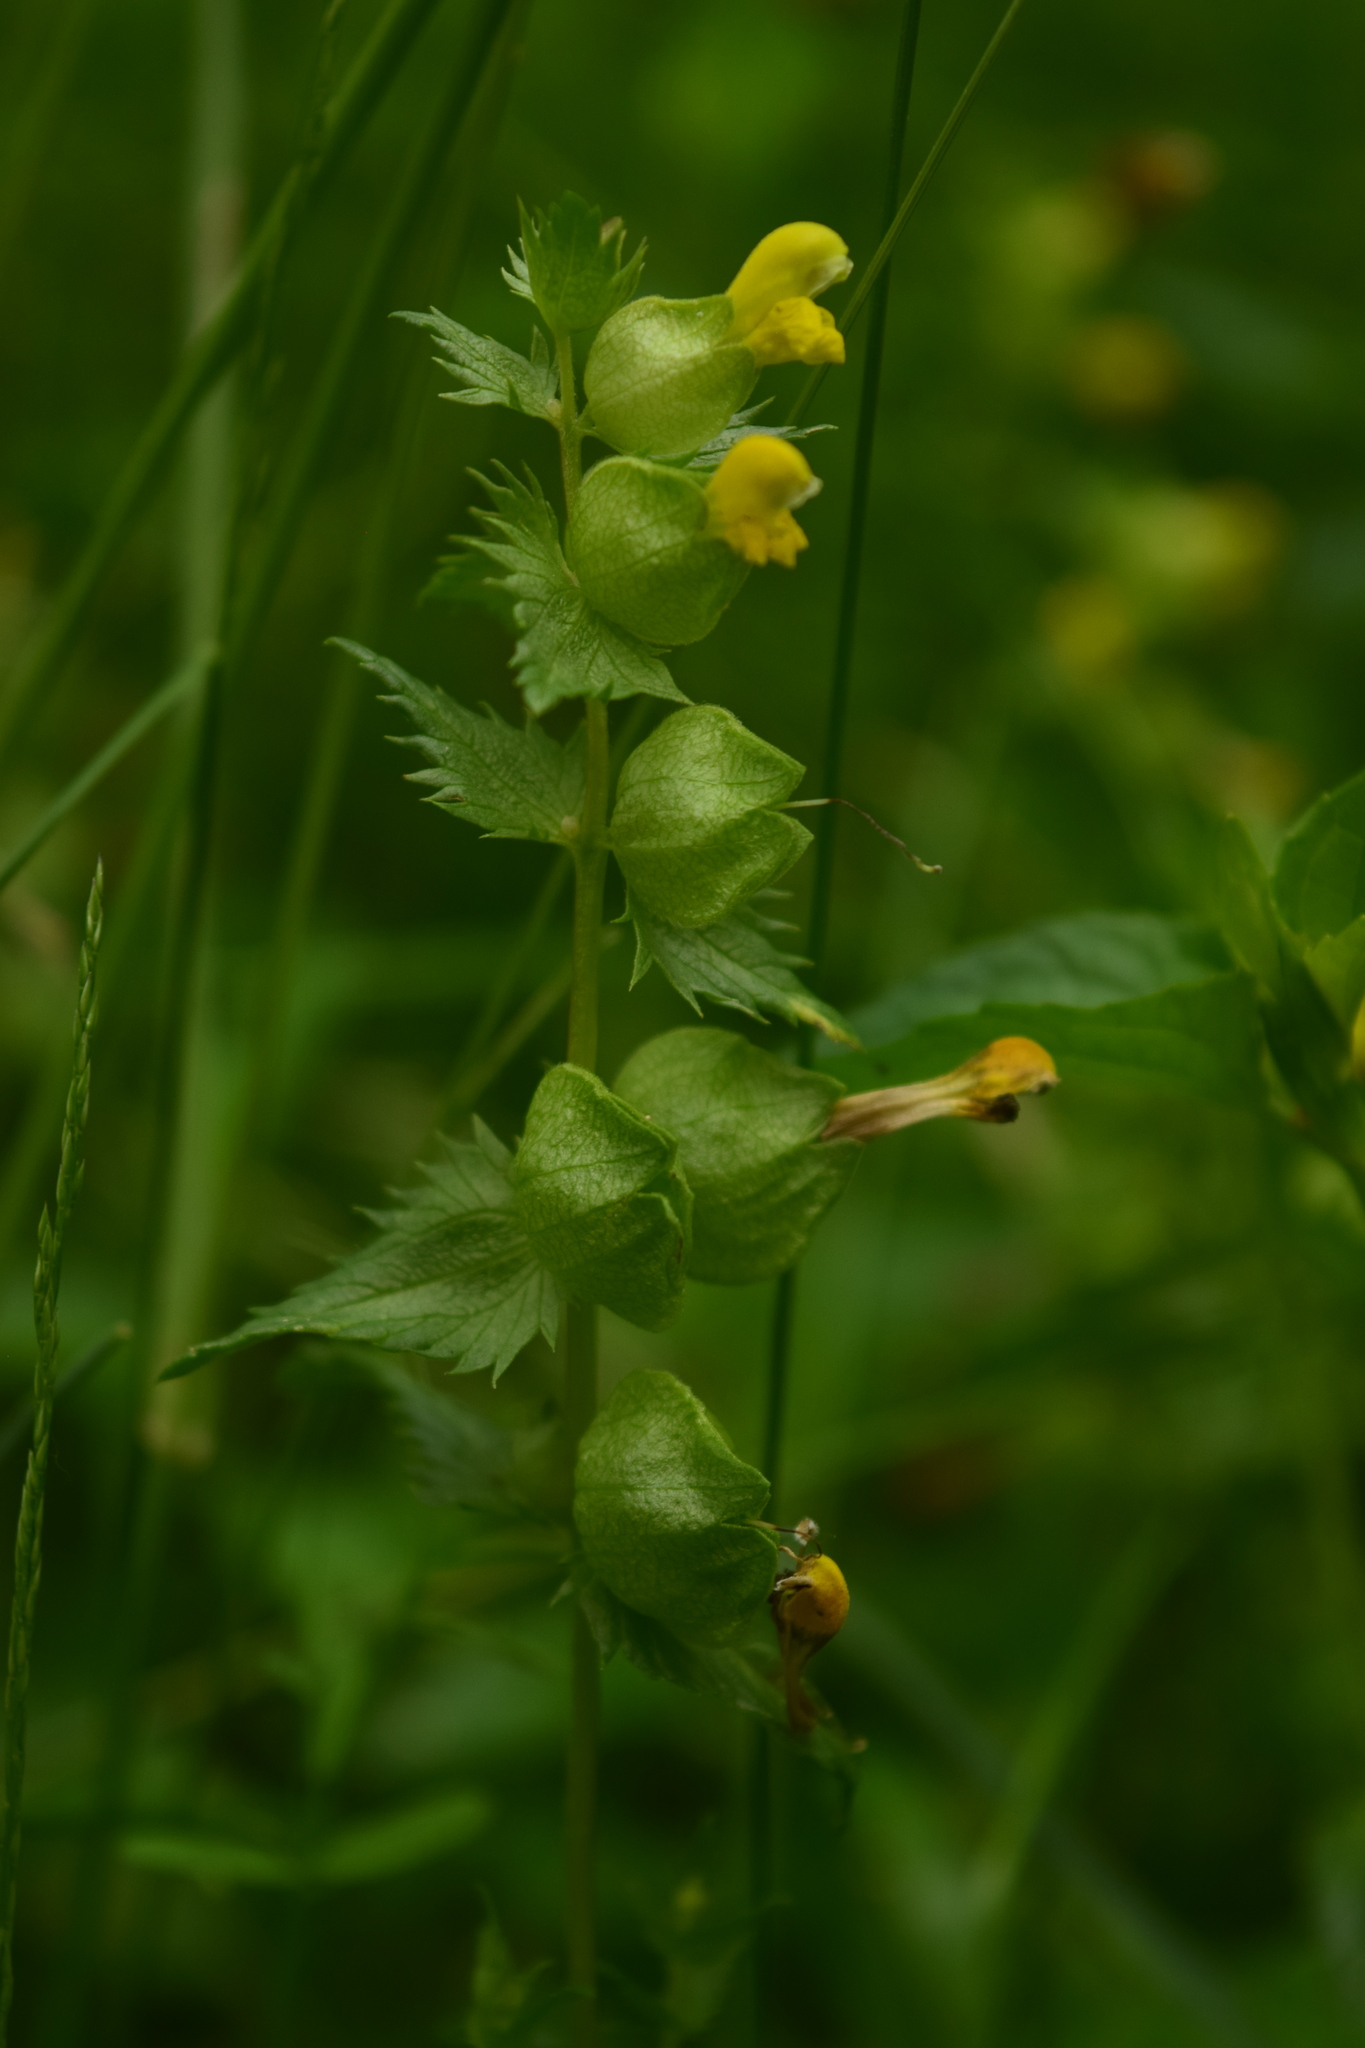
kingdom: Plantae
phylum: Tracheophyta
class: Magnoliopsida
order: Lamiales
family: Orobanchaceae
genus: Rhinanthus
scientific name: Rhinanthus minor
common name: Yellow-rattle
